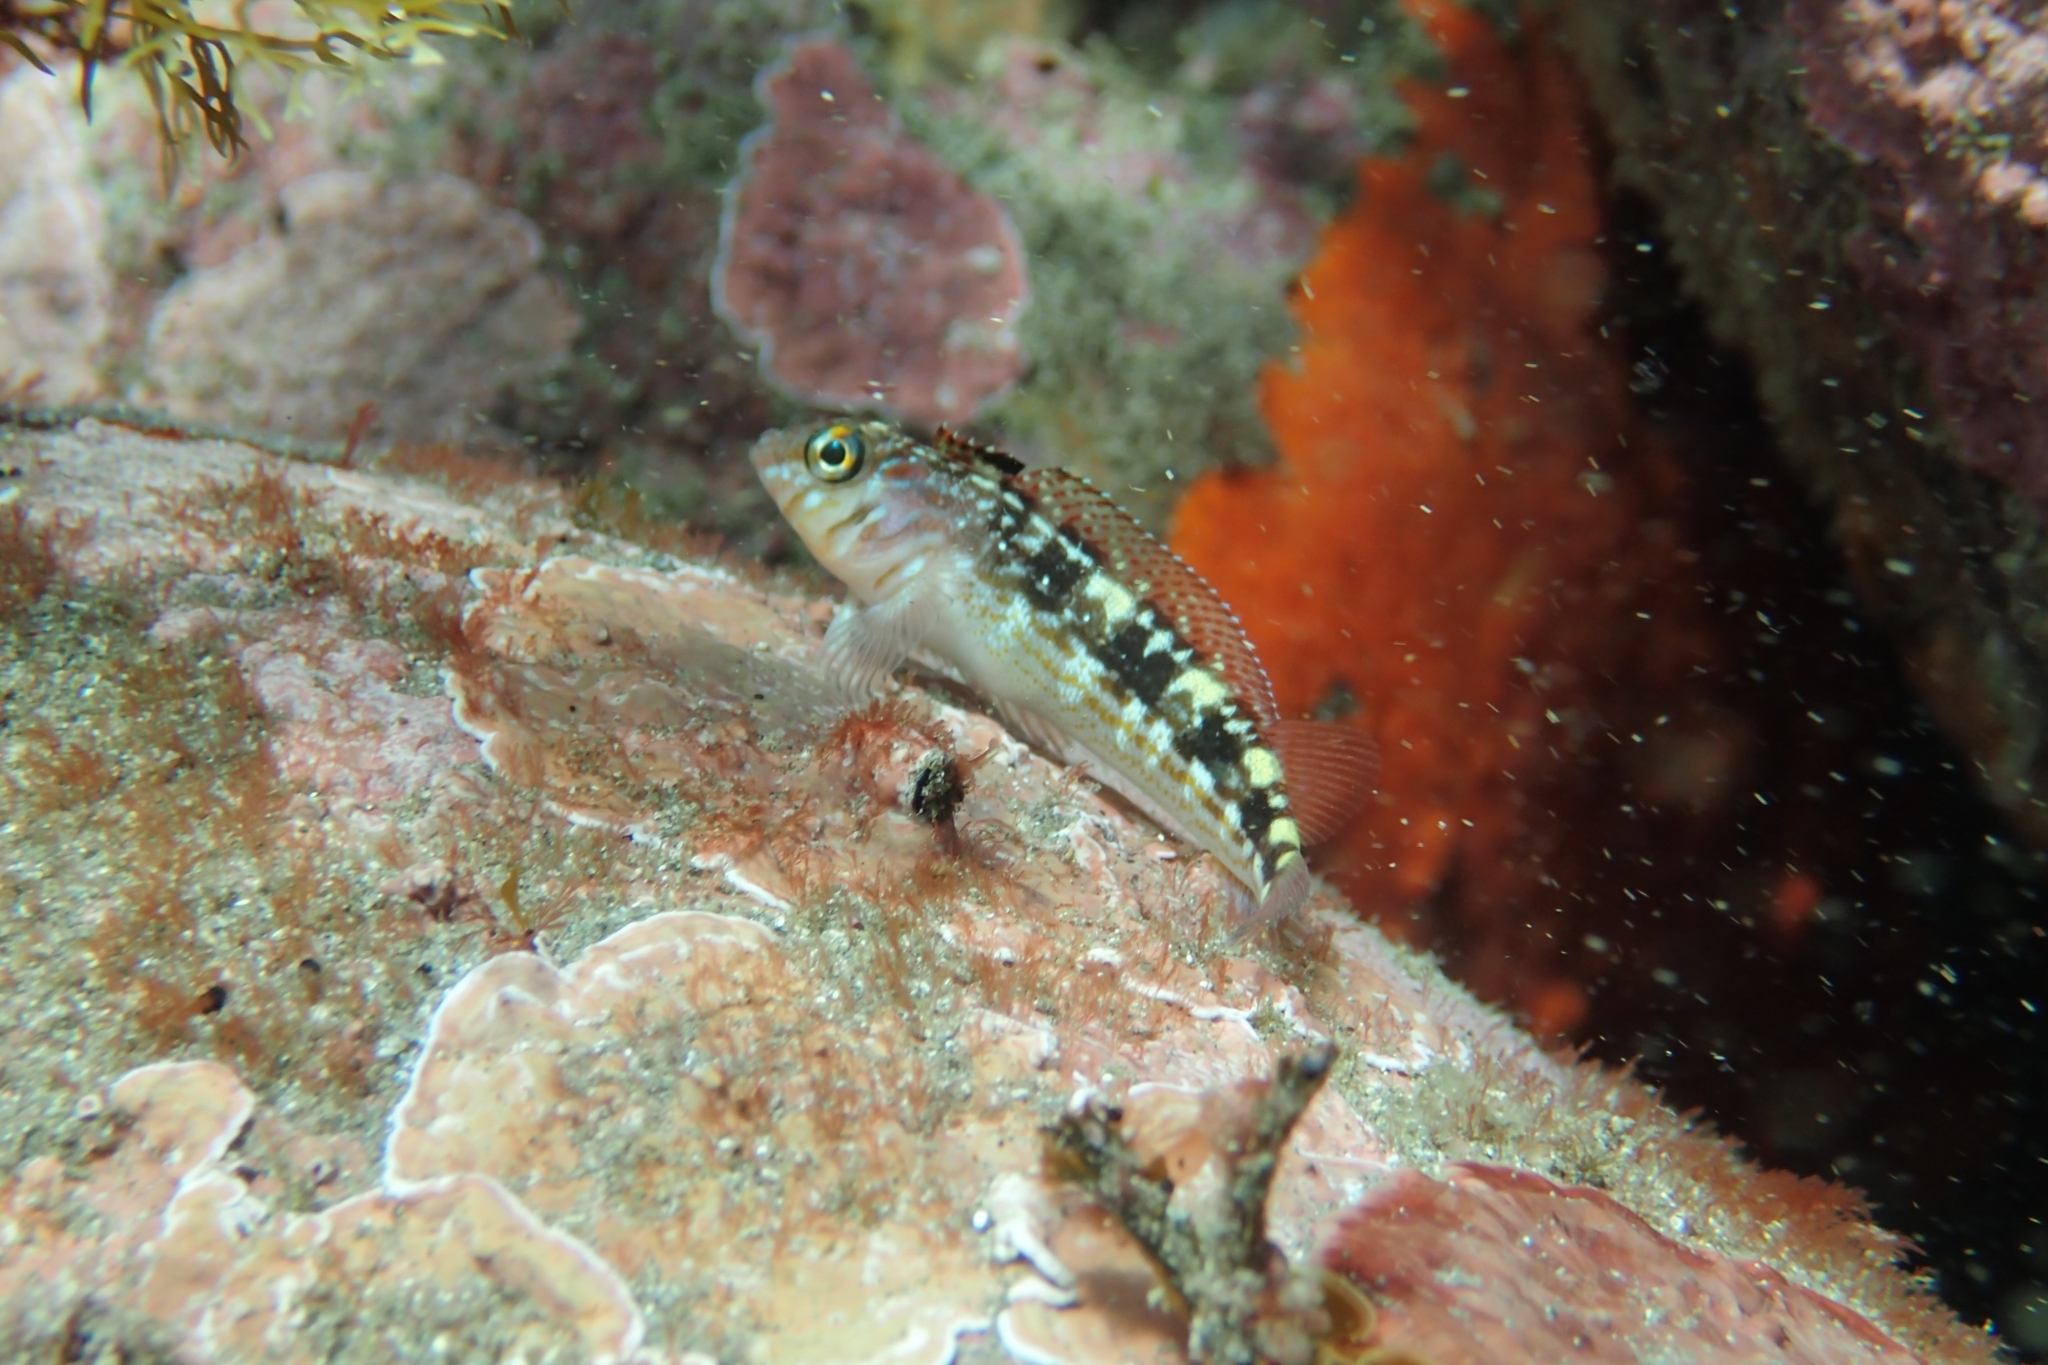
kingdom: Animalia
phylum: Chordata
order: Perciformes
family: Tripterygiidae
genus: Forsterygion
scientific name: Forsterygion varium
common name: Variable triplefin
